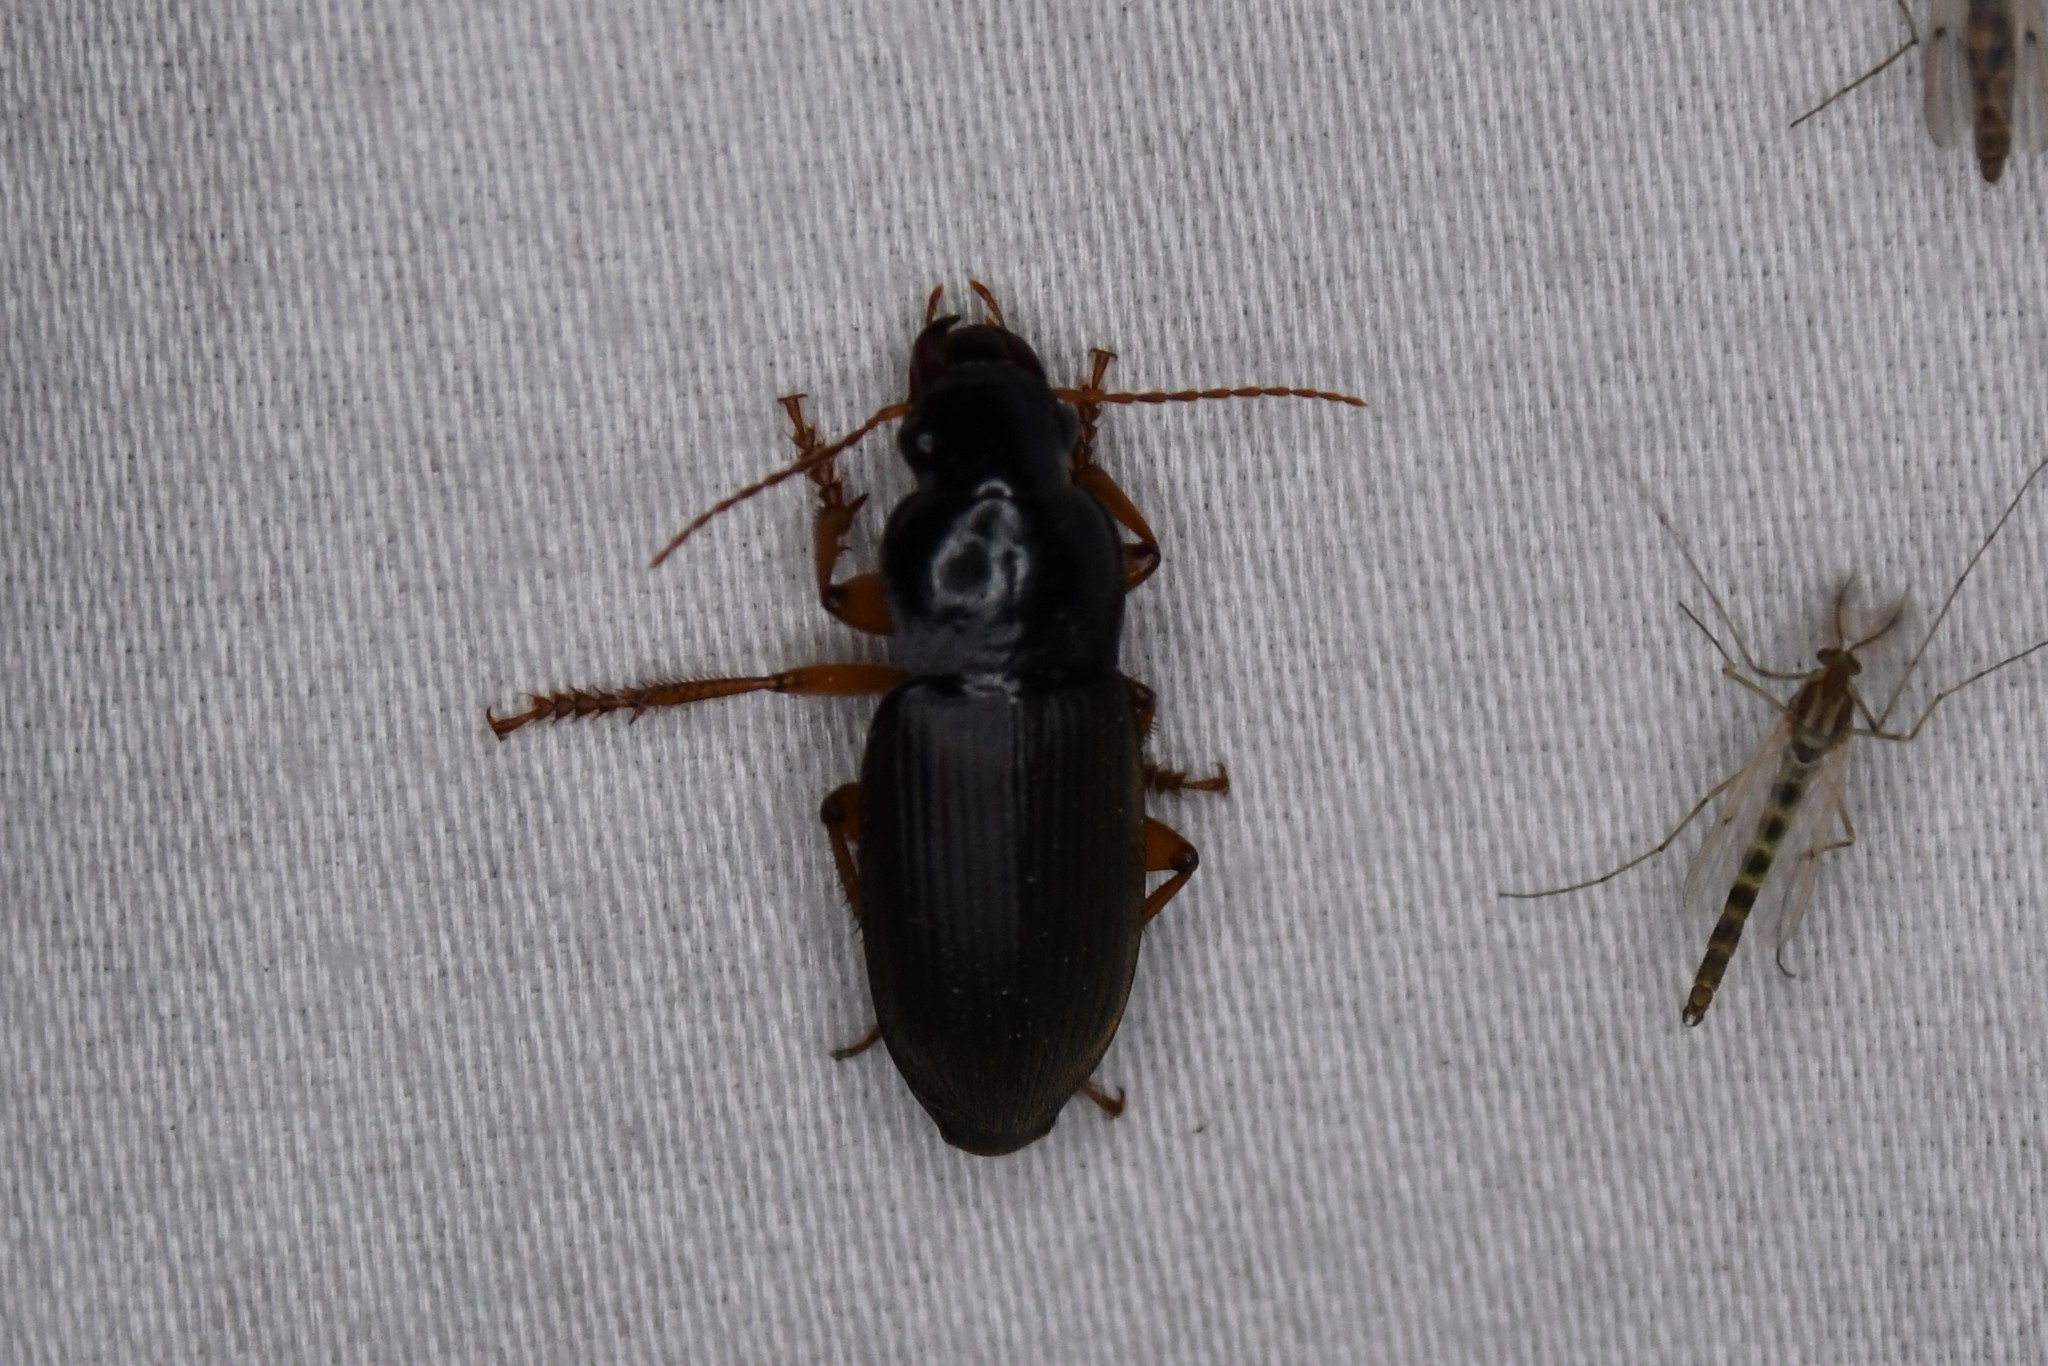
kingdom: Animalia
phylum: Arthropoda
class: Insecta
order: Coleoptera
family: Carabidae
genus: Harpalus
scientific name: Harpalus rufipes
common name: Strawberry harp ground beetle
